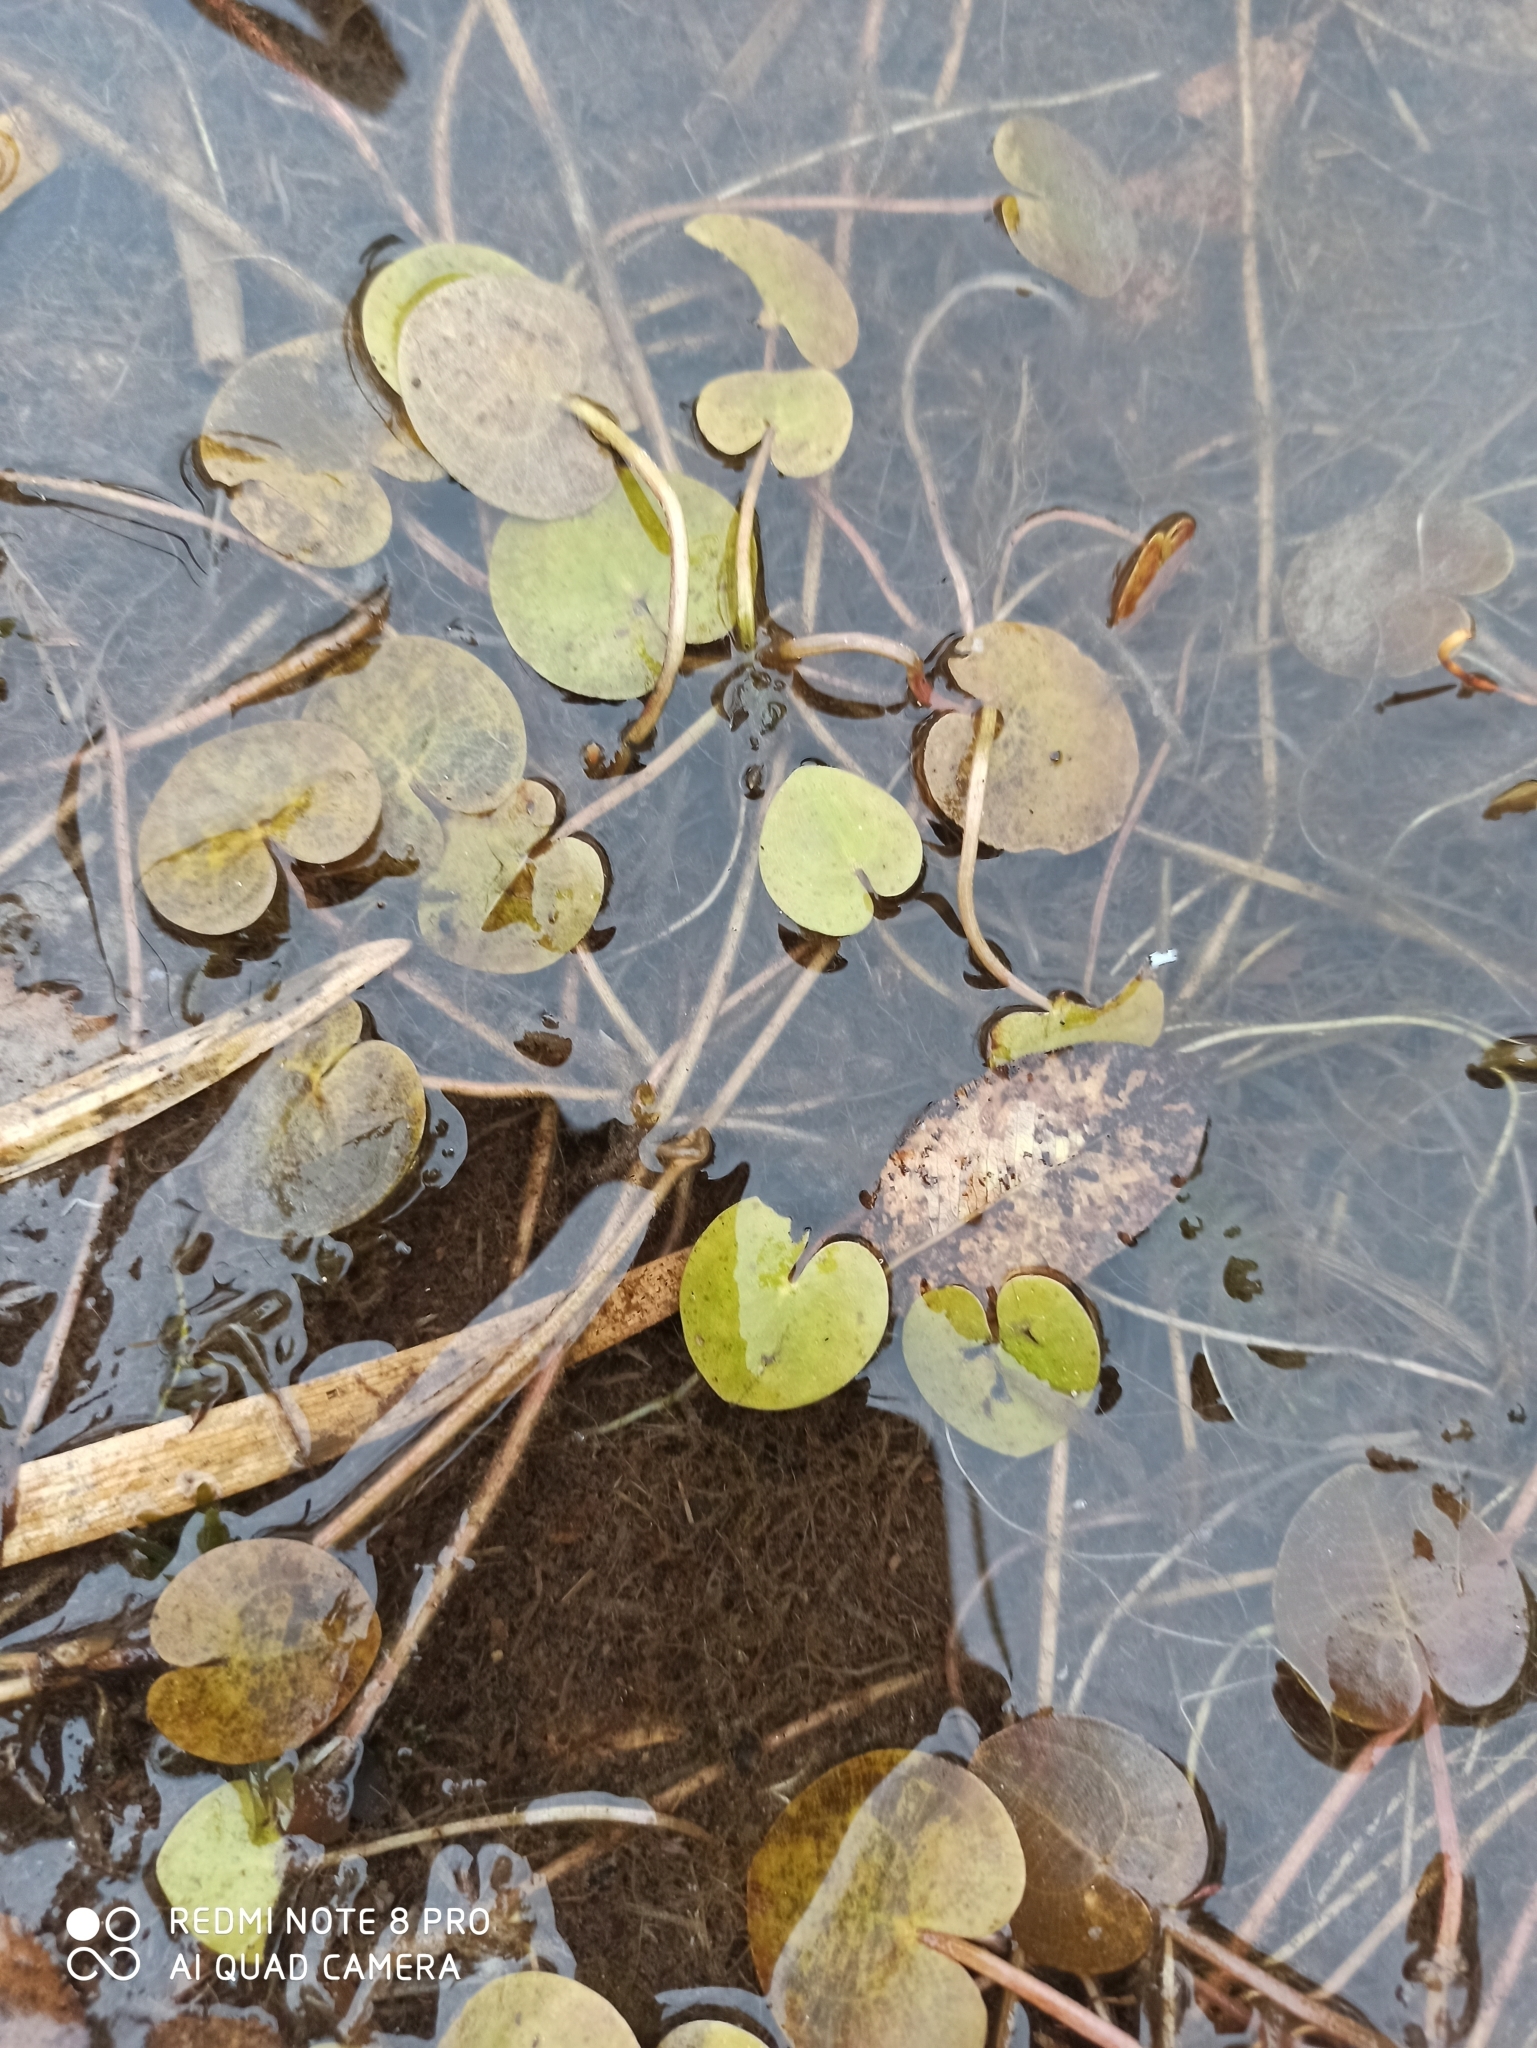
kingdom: Plantae
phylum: Tracheophyta
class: Liliopsida
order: Alismatales
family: Hydrocharitaceae
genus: Hydrocharis
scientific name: Hydrocharis morsus-ranae
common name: Frogbit
